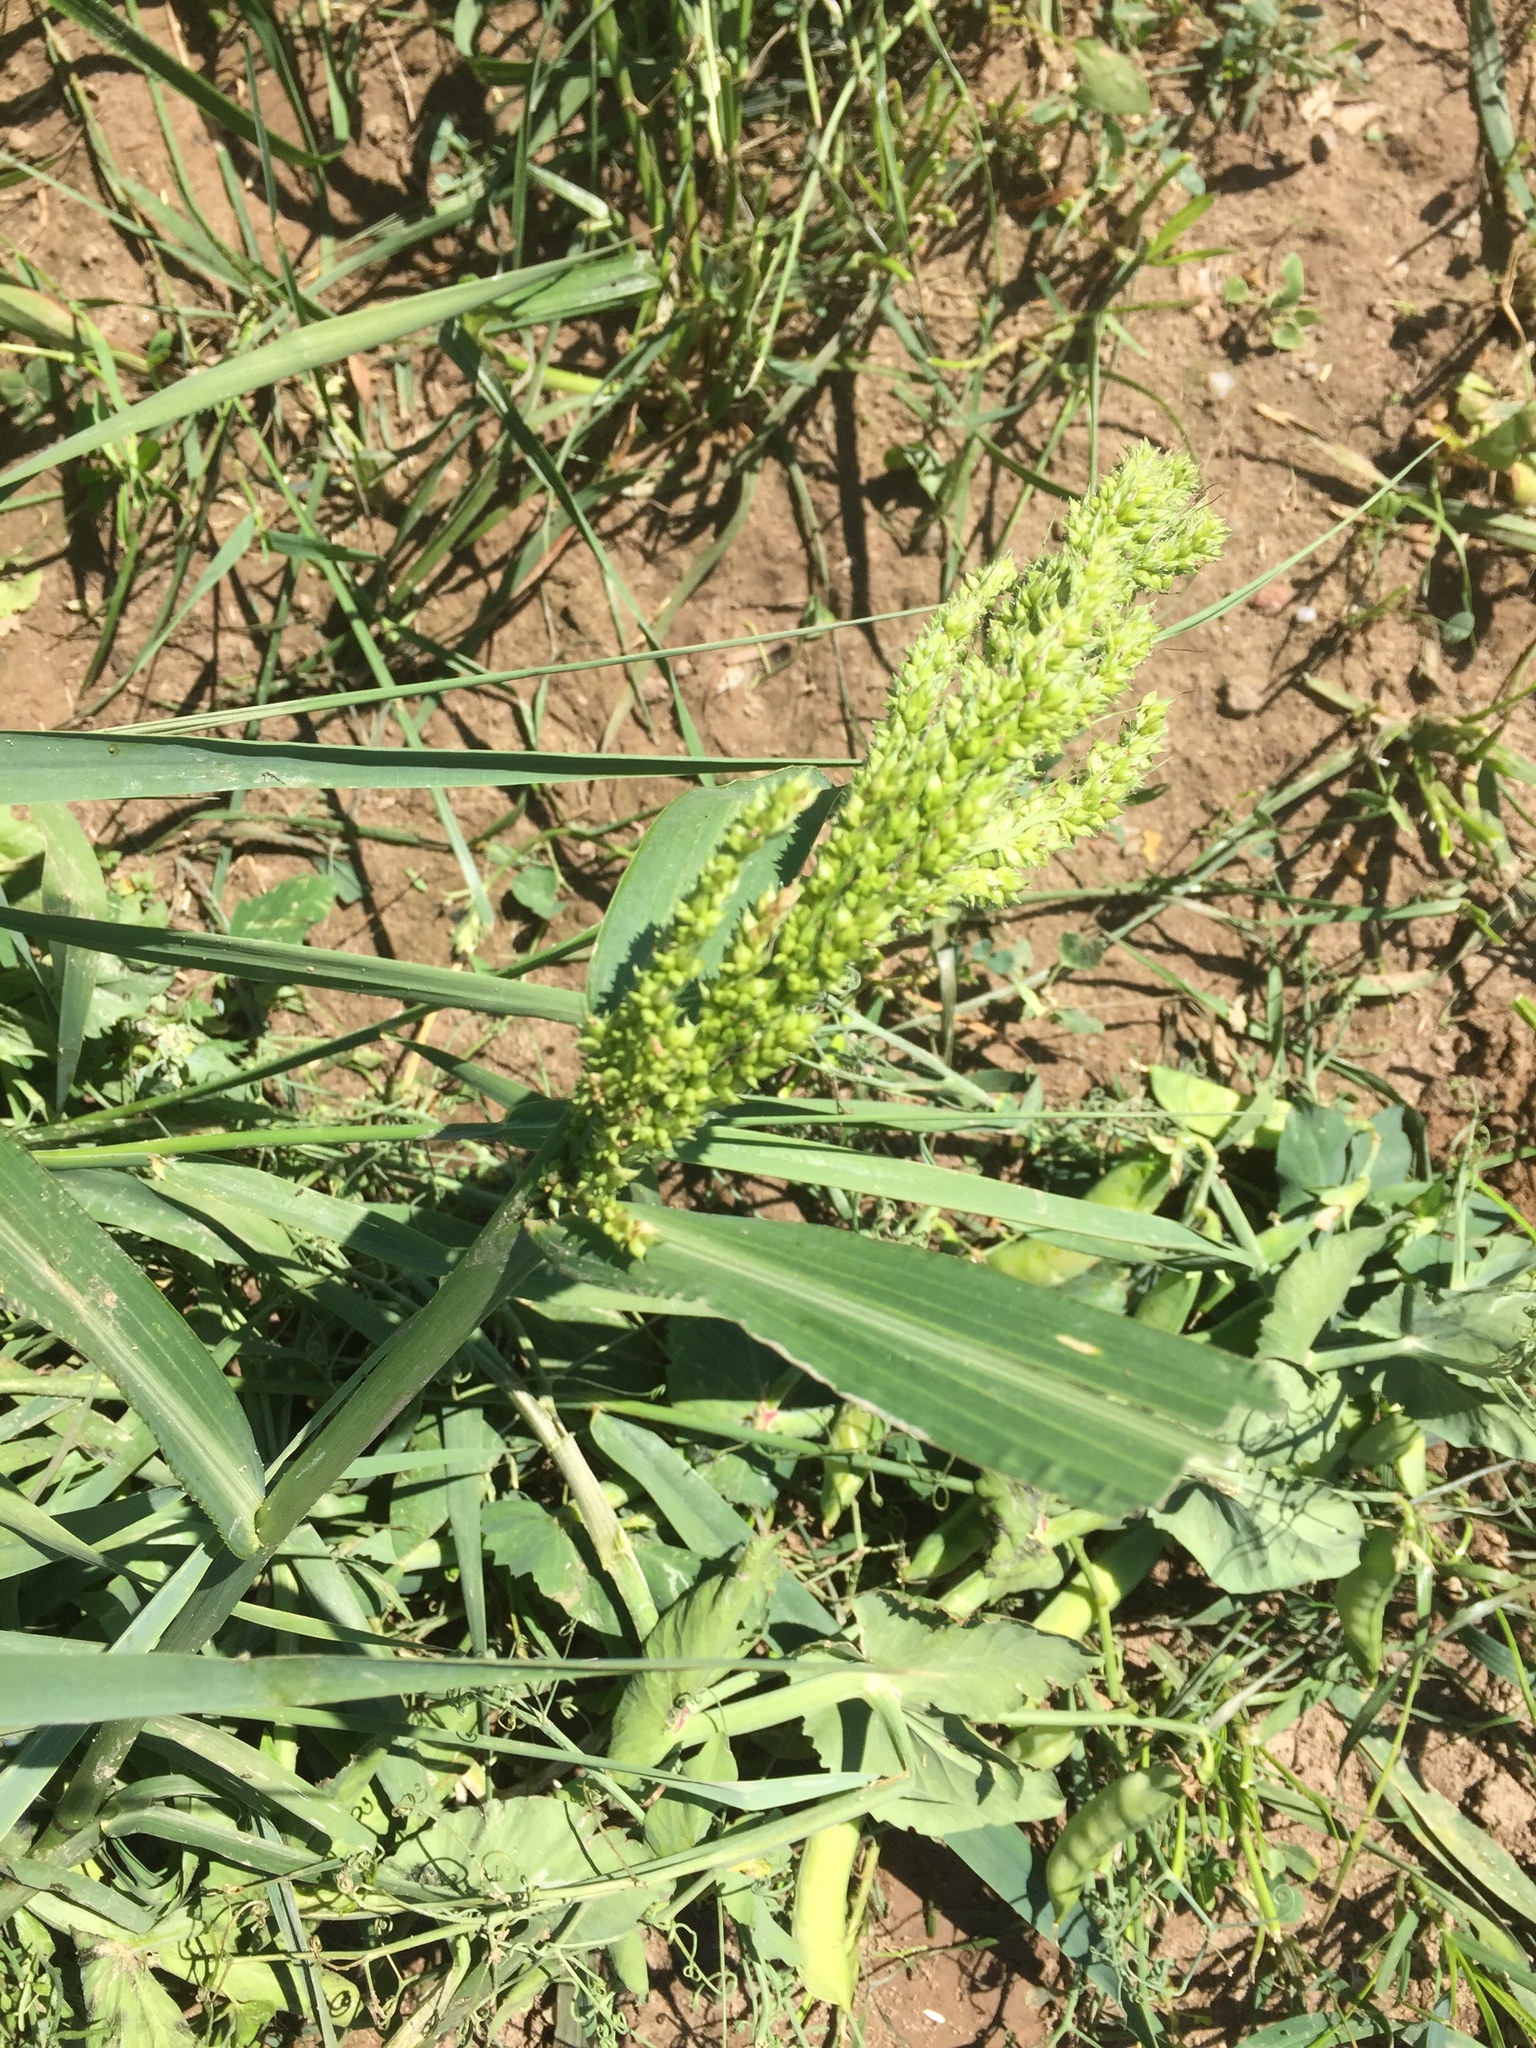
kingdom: Plantae
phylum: Tracheophyta
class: Liliopsida
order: Poales
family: Poaceae
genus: Echinochloa
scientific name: Echinochloa crus-galli
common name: Cockspur
